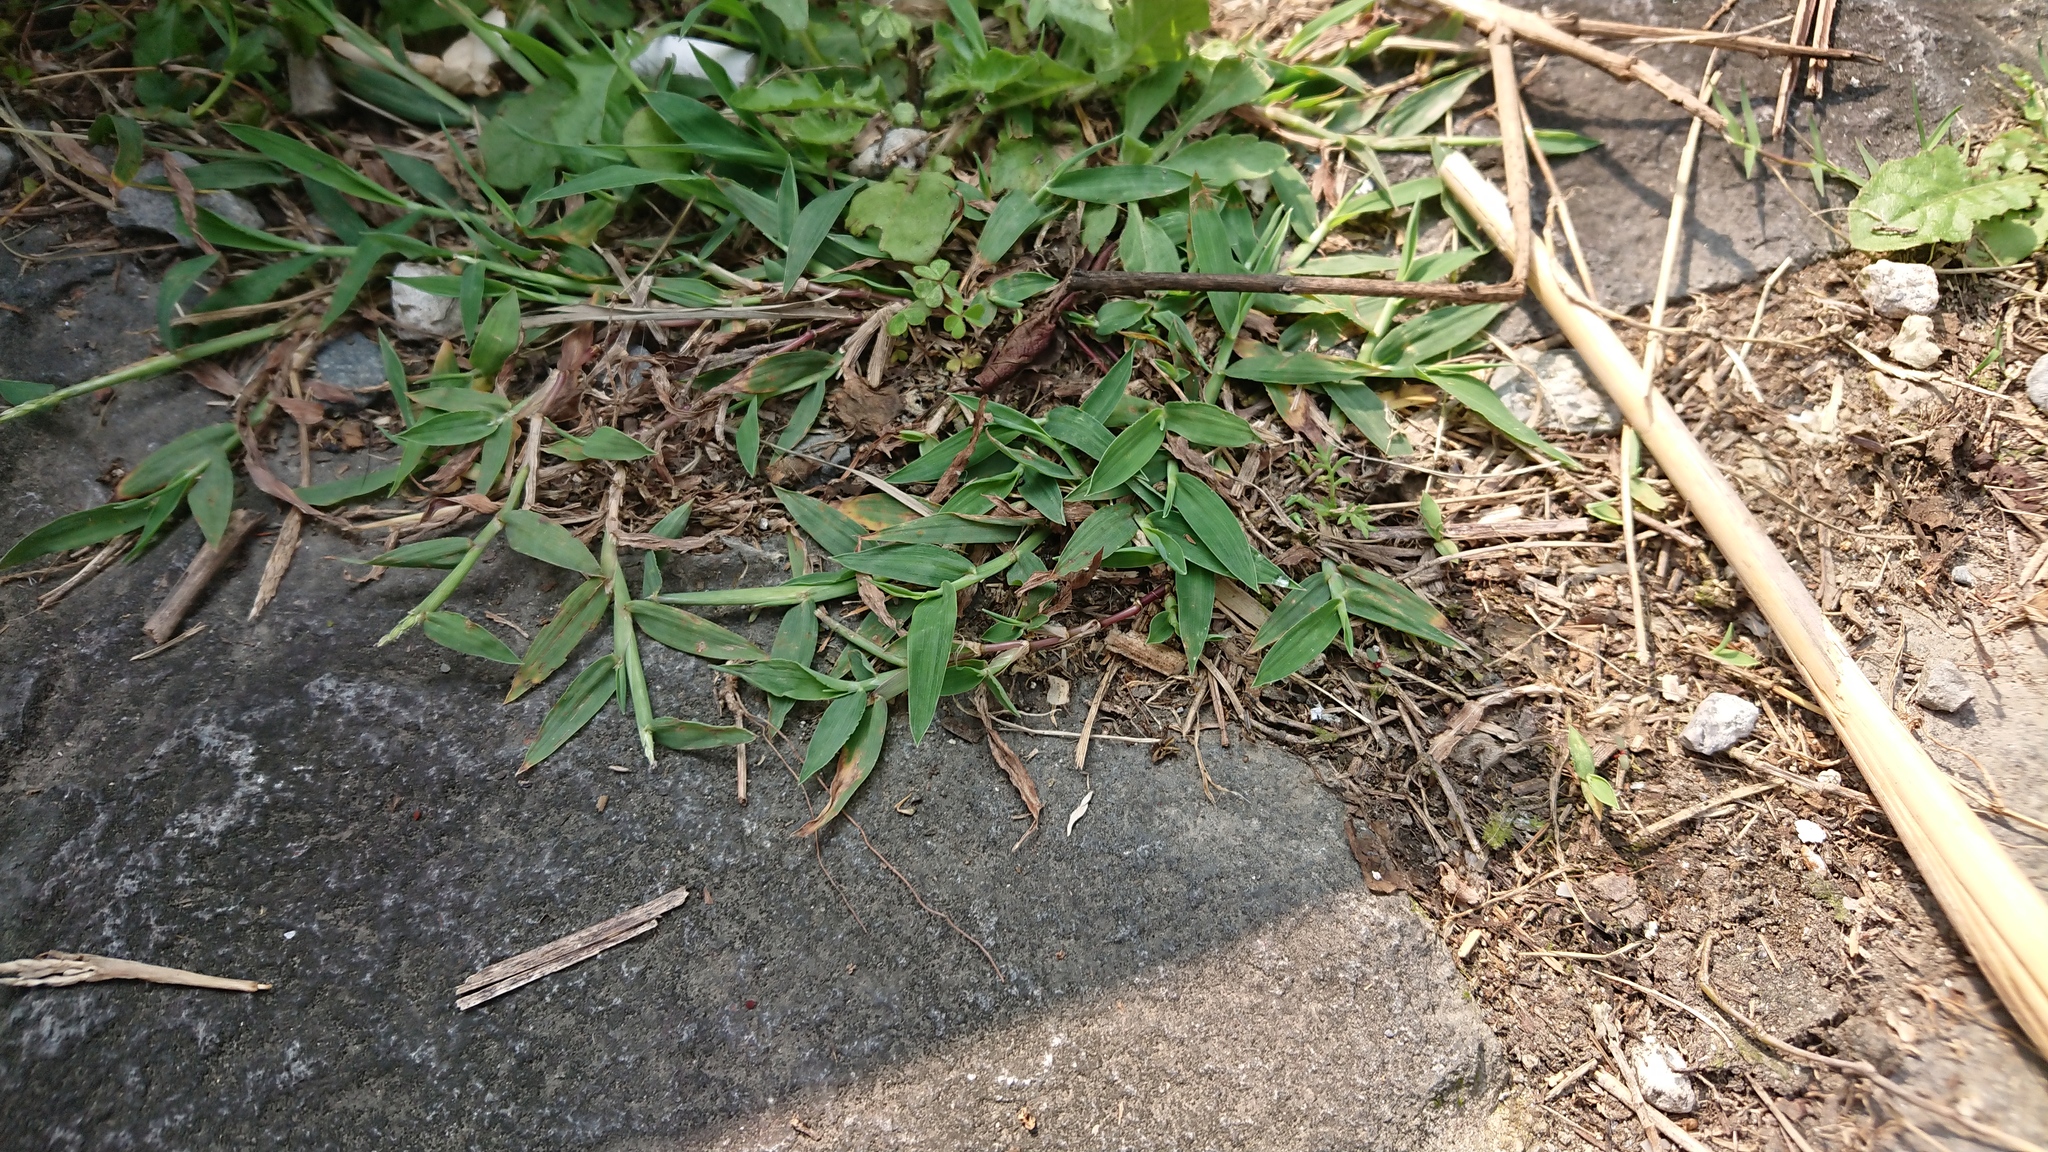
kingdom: Plantae
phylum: Tracheophyta
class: Liliopsida
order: Poales
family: Poaceae
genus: Axonopus
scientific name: Axonopus compressus
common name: American carpet grass
